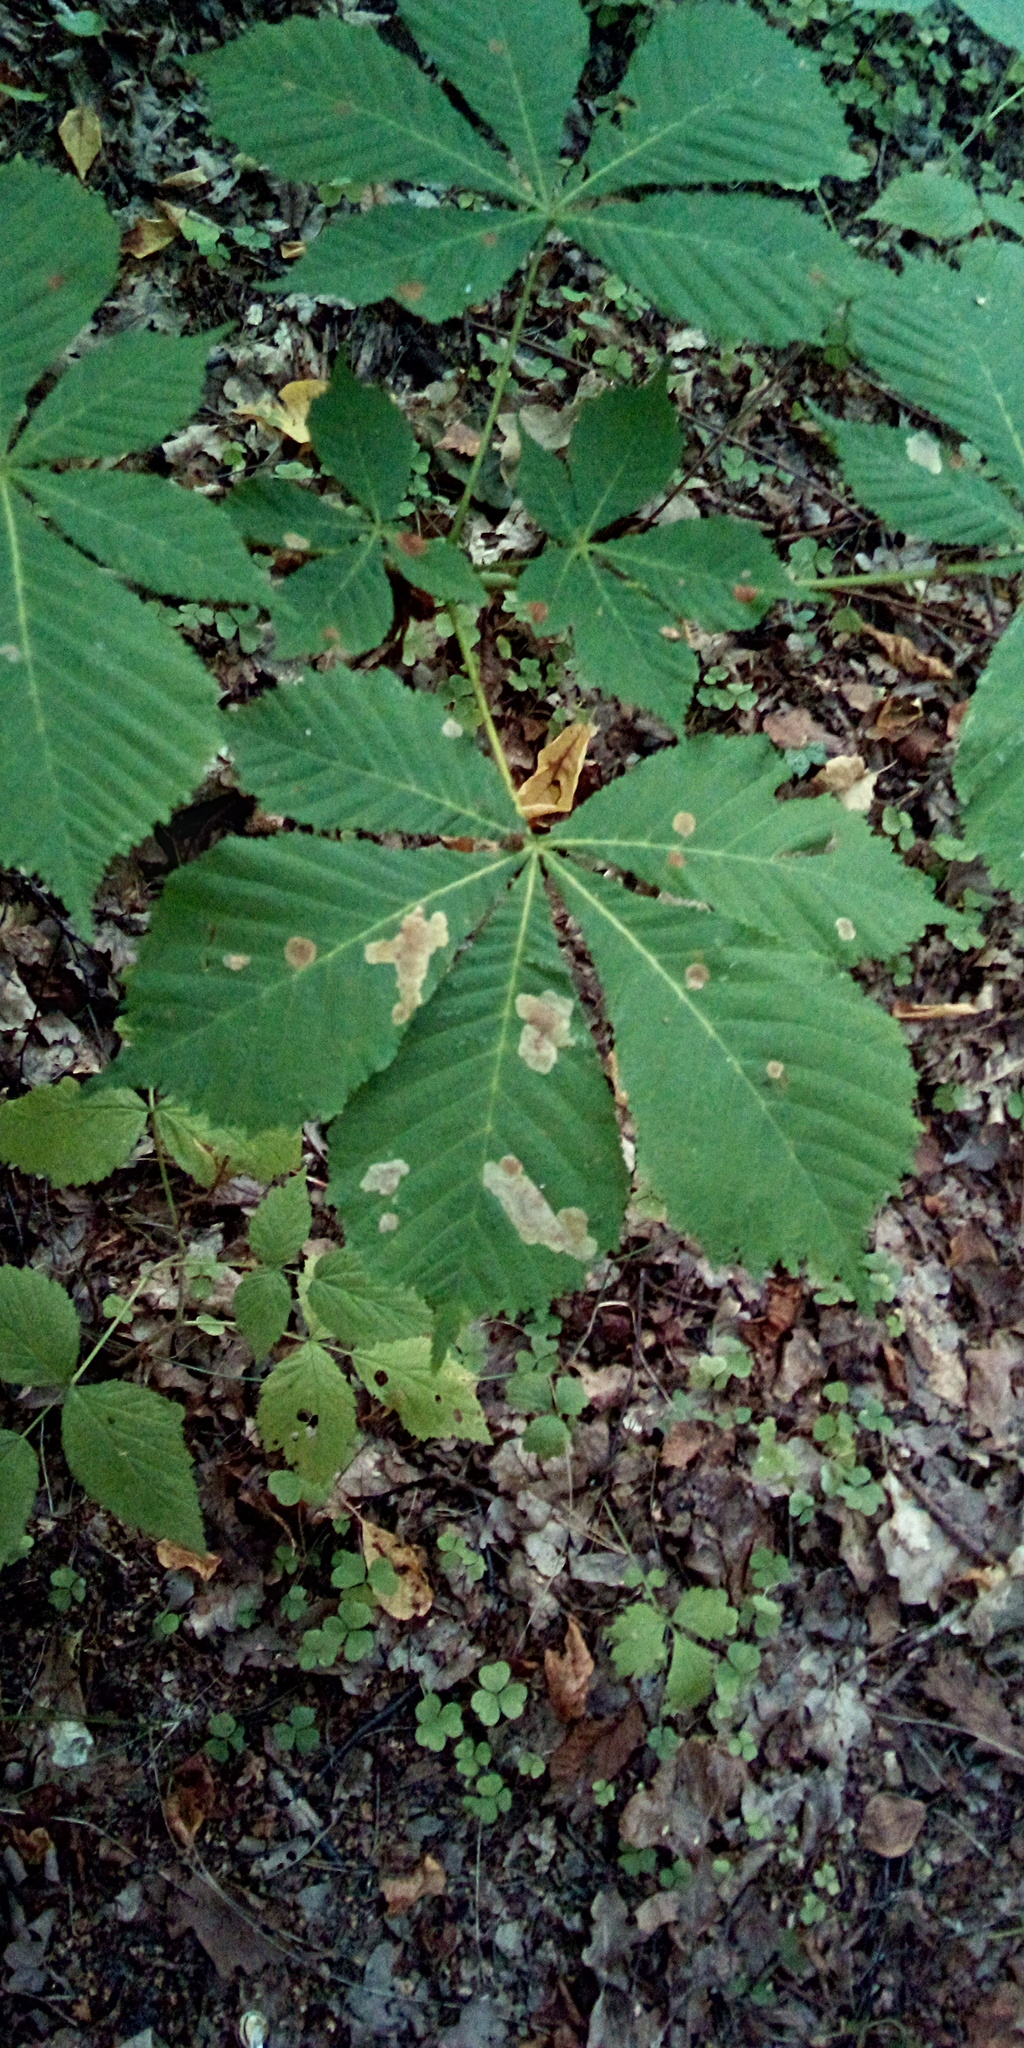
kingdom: Plantae
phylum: Tracheophyta
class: Magnoliopsida
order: Sapindales
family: Sapindaceae
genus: Aesculus
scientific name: Aesculus hippocastanum
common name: Horse-chestnut
